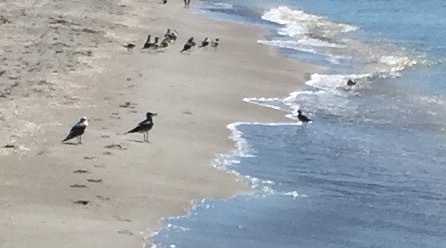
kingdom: Animalia
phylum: Chordata
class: Aves
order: Charadriiformes
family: Laridae
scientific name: Laridae
